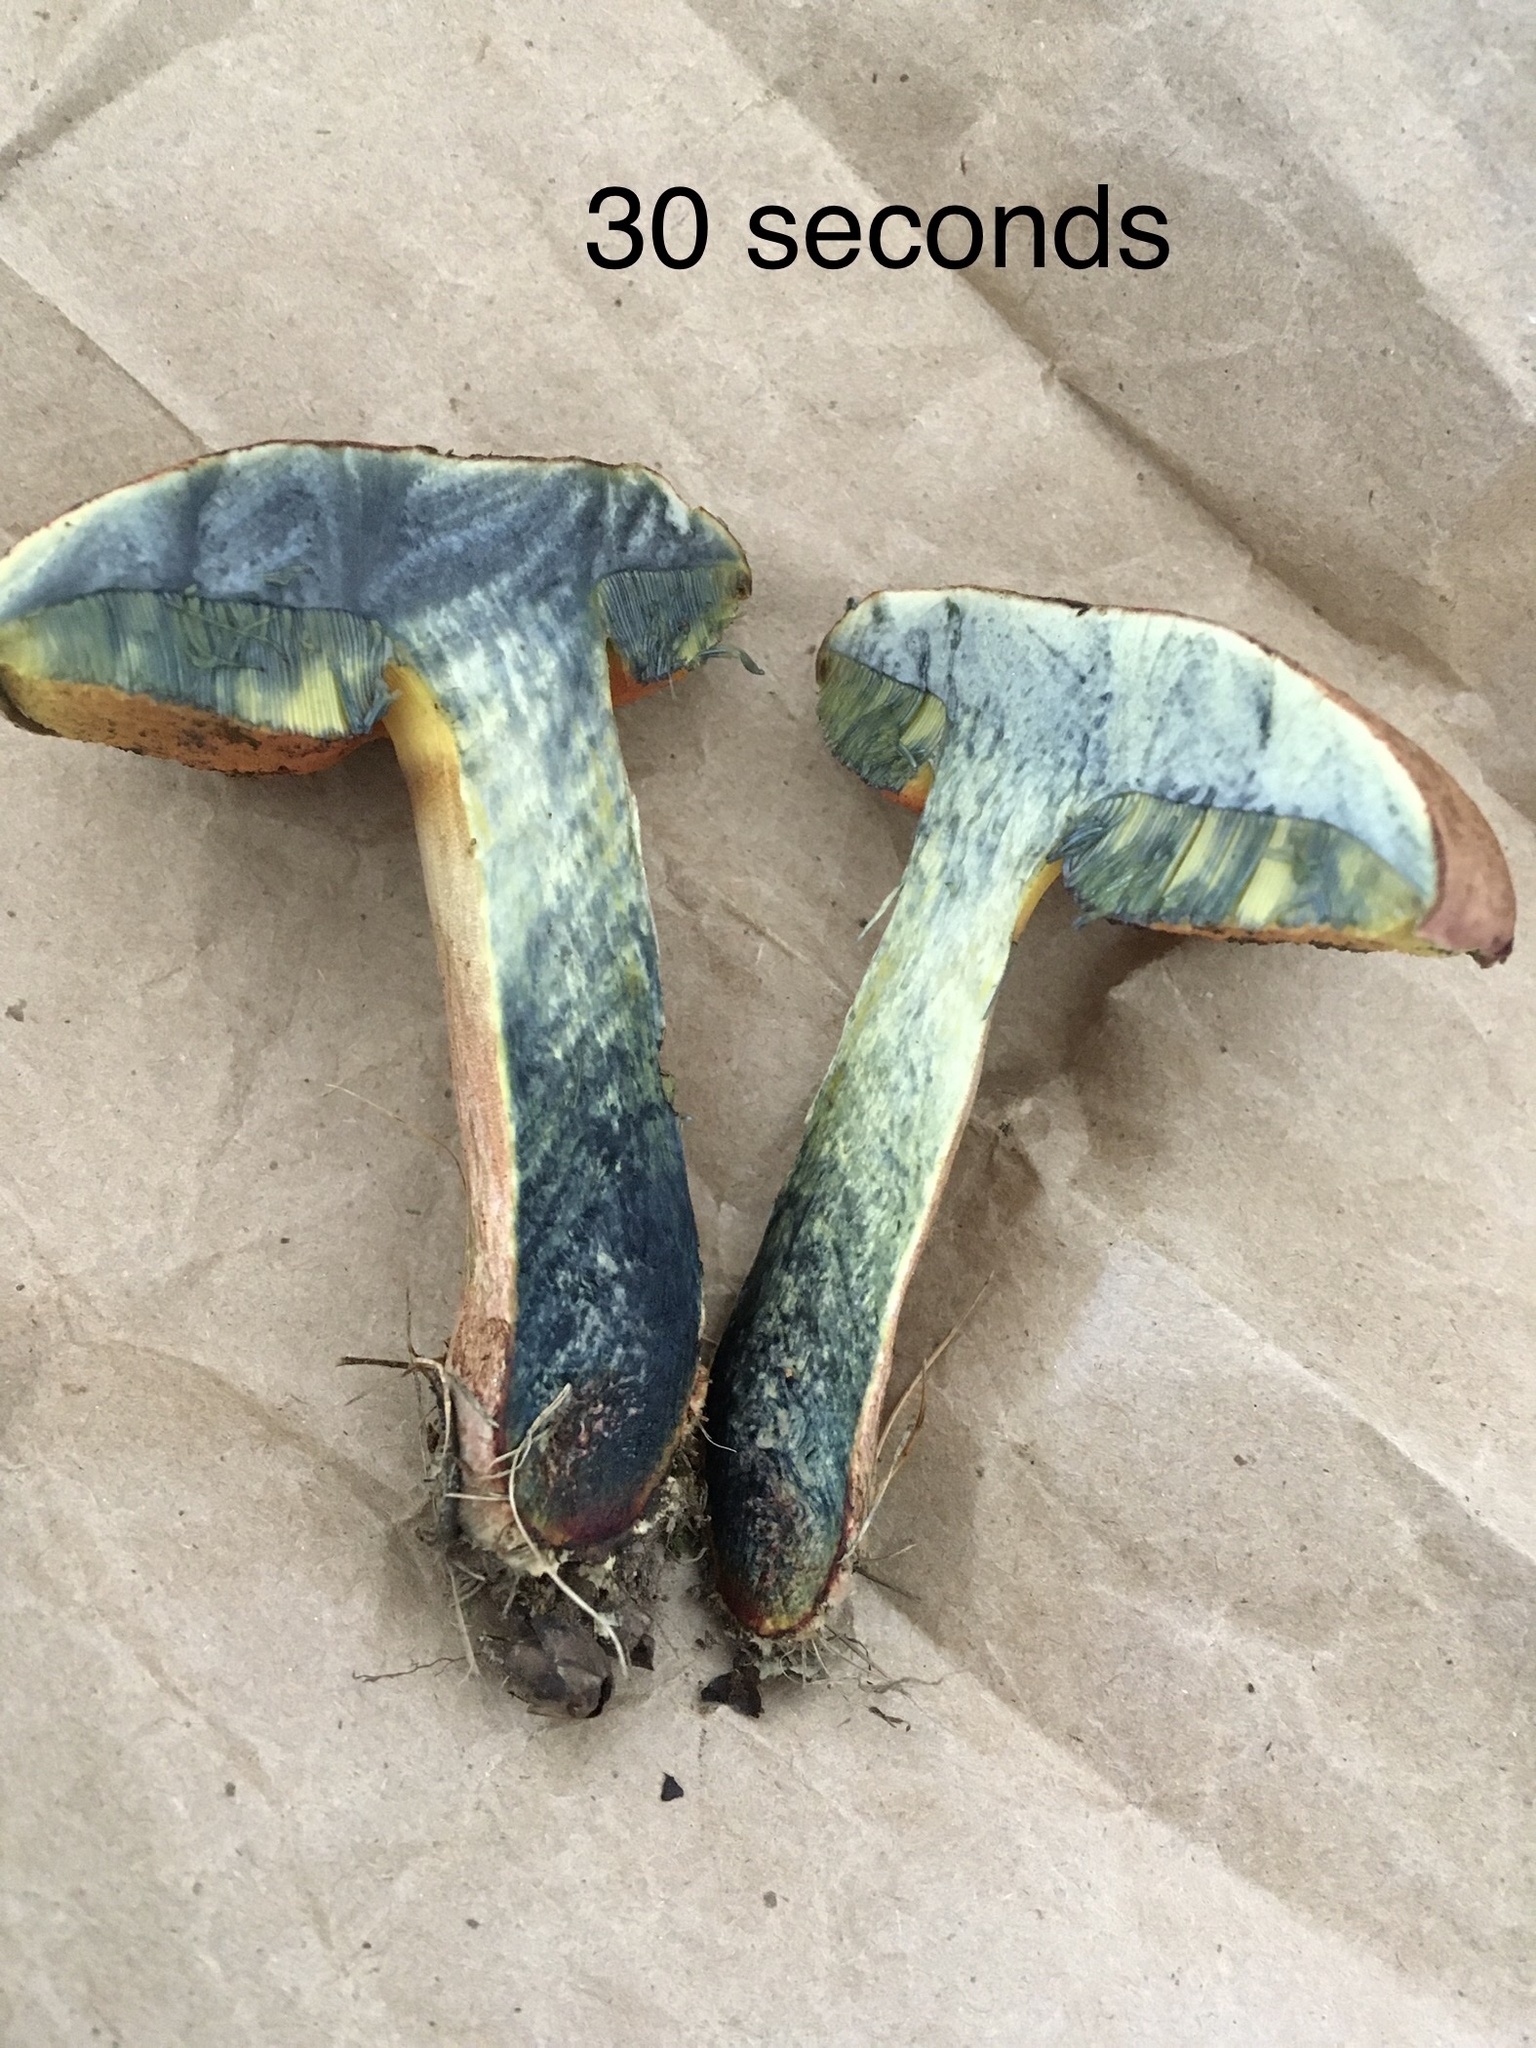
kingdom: Fungi
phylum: Basidiomycota
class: Agaricomycetes
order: Boletales
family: Boletaceae
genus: Boletus
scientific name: Boletus subvelutipes
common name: Red-mouth bolete
